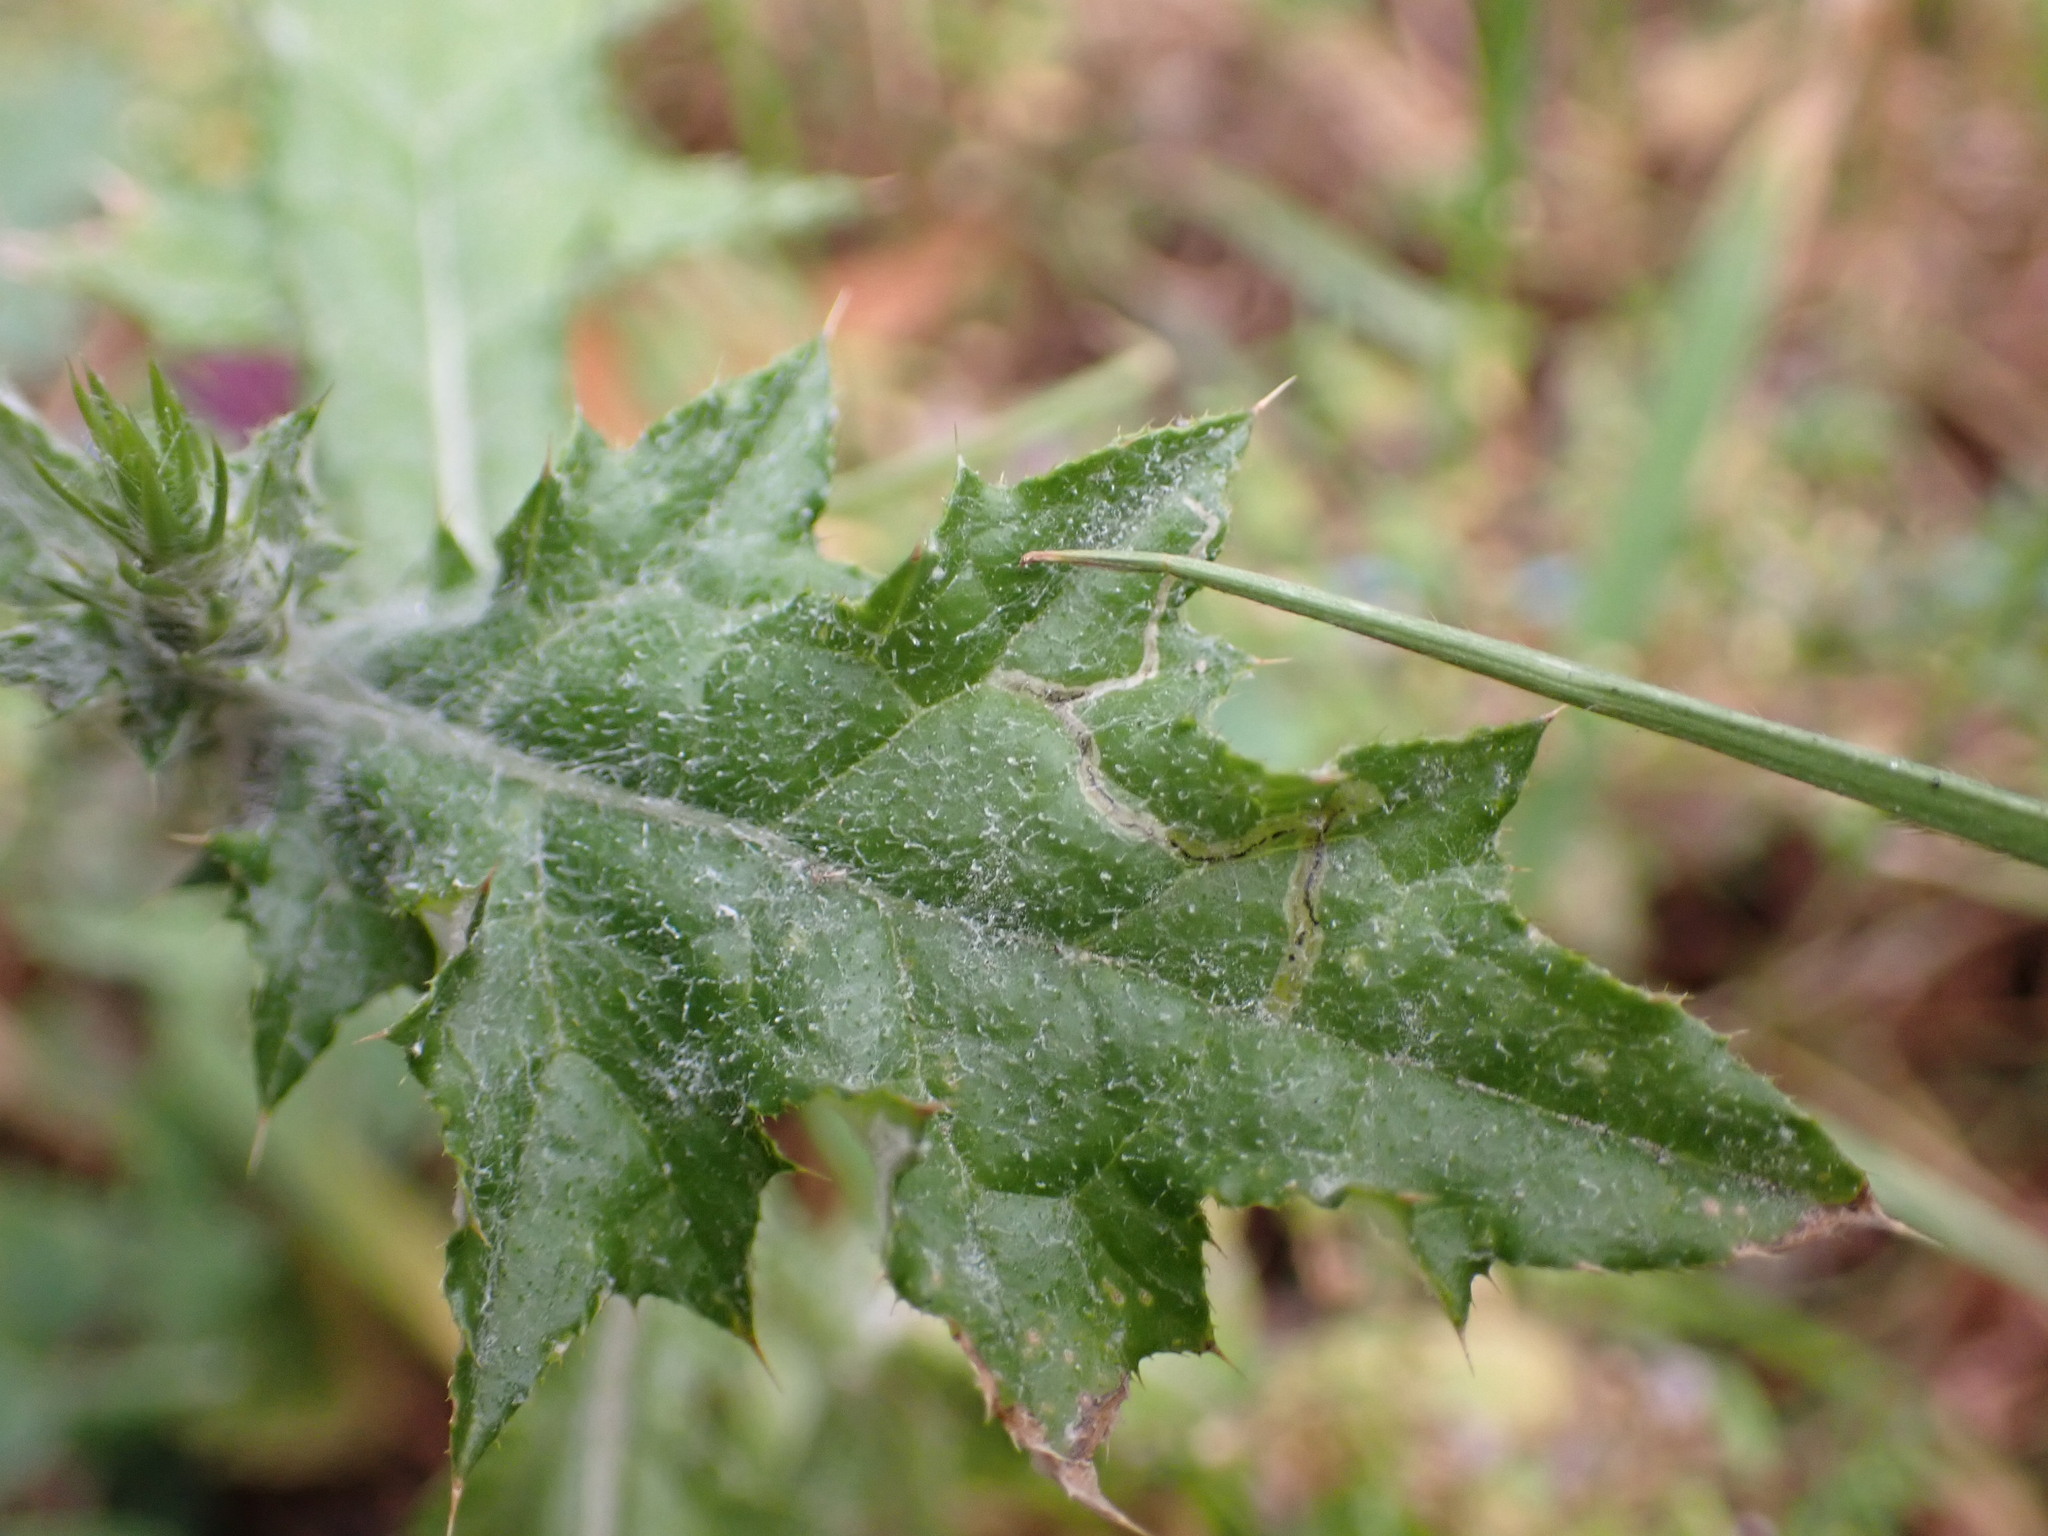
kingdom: Plantae
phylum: Tracheophyta
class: Magnoliopsida
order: Asterales
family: Asteraceae
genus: Carduus
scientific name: Carduus pycnocephalus
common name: Plymouth thistle
